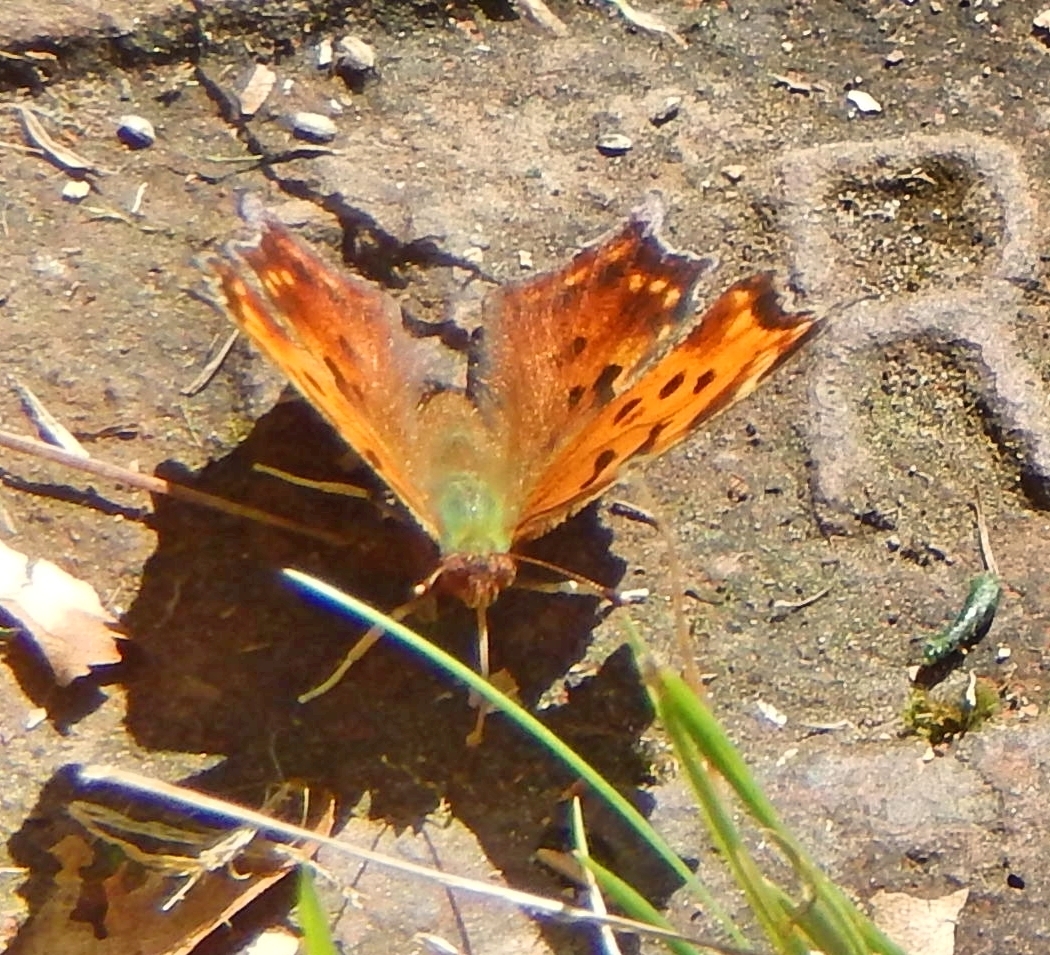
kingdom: Animalia
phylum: Arthropoda
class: Insecta
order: Lepidoptera
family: Nymphalidae
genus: Polygonia
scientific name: Polygonia comma
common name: Eastern comma
